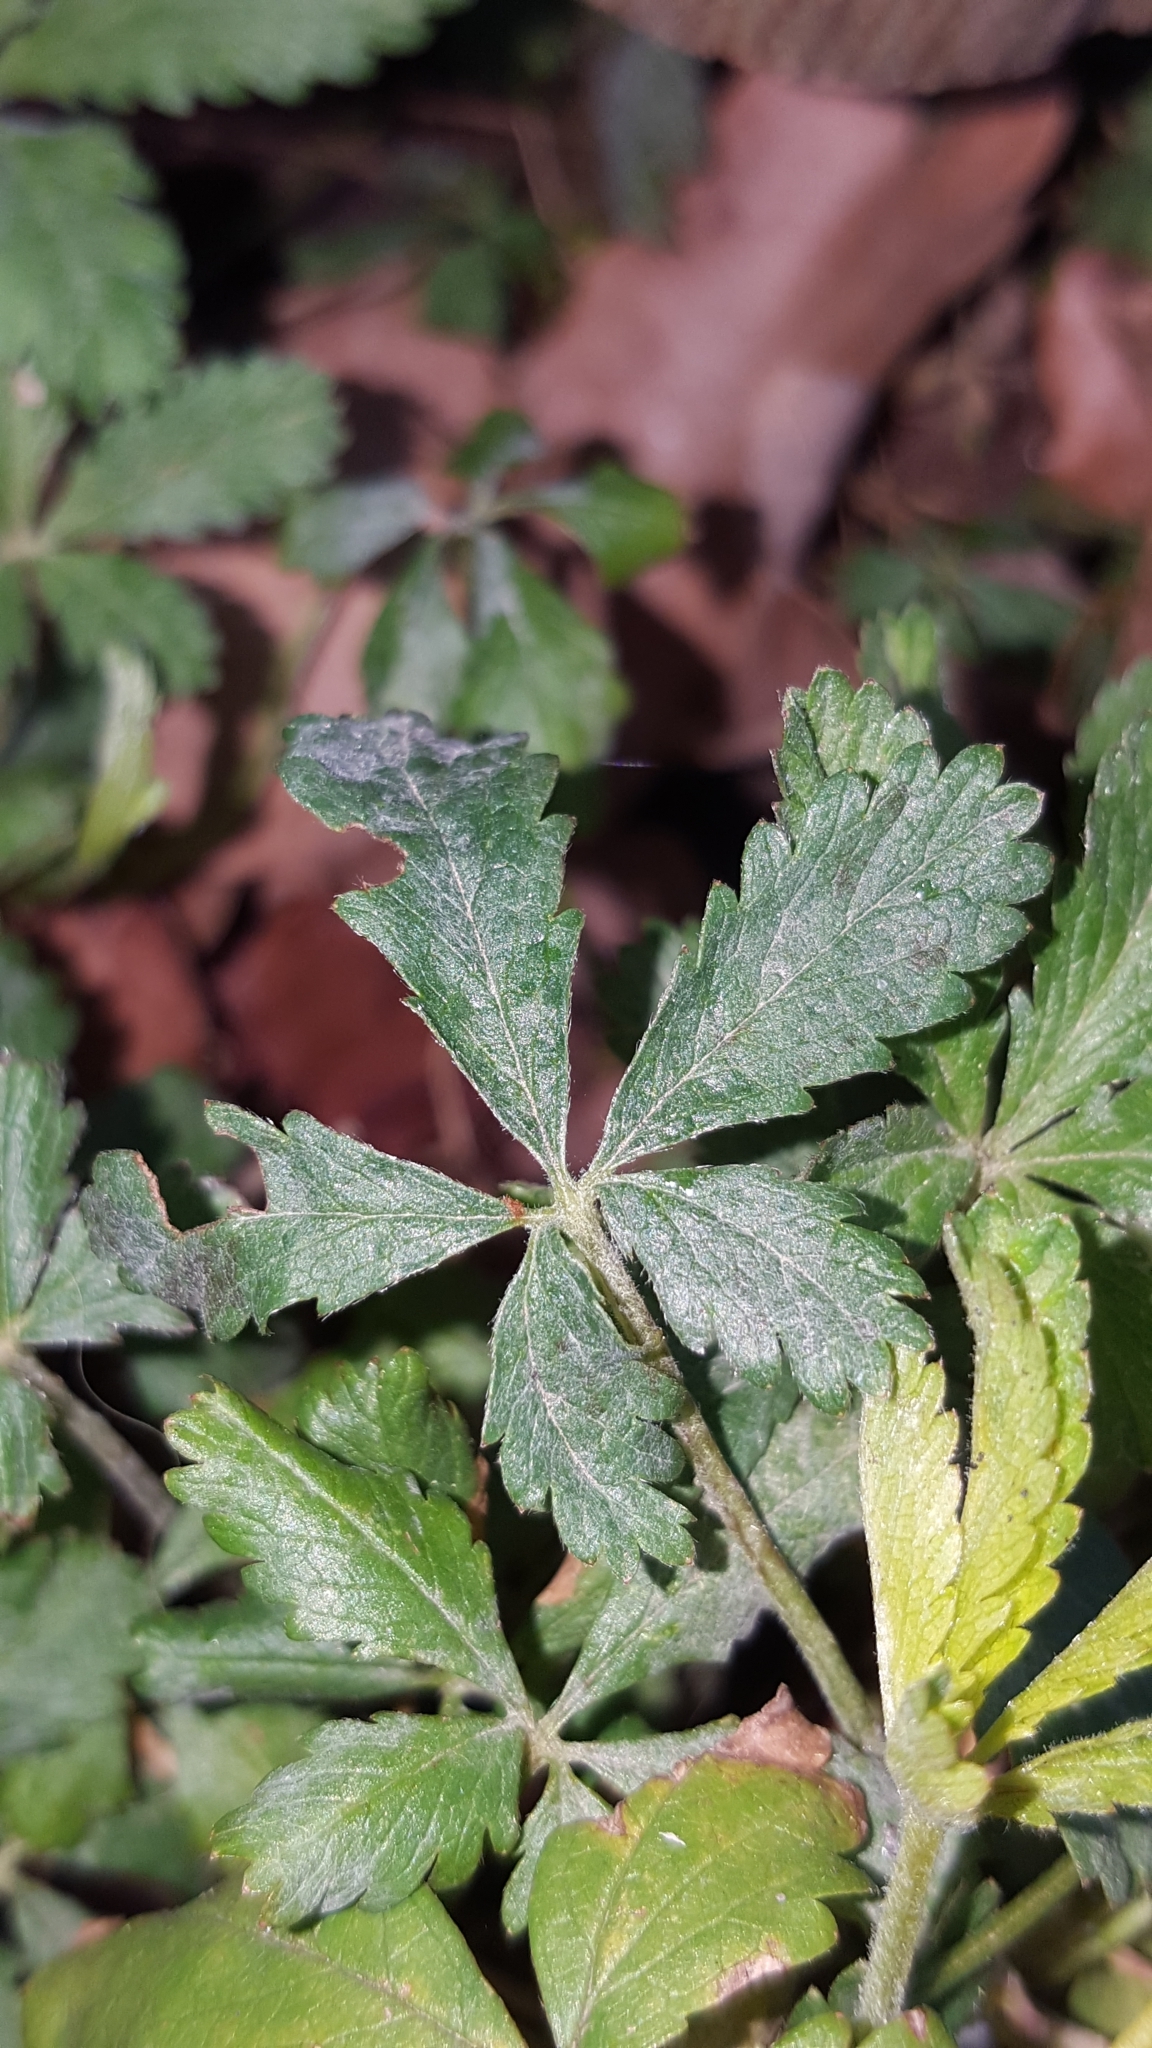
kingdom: Fungi
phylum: Ascomycota
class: Leotiomycetes
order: Helotiales
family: Erysiphaceae
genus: Podosphaera
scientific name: Podosphaera aphanis
